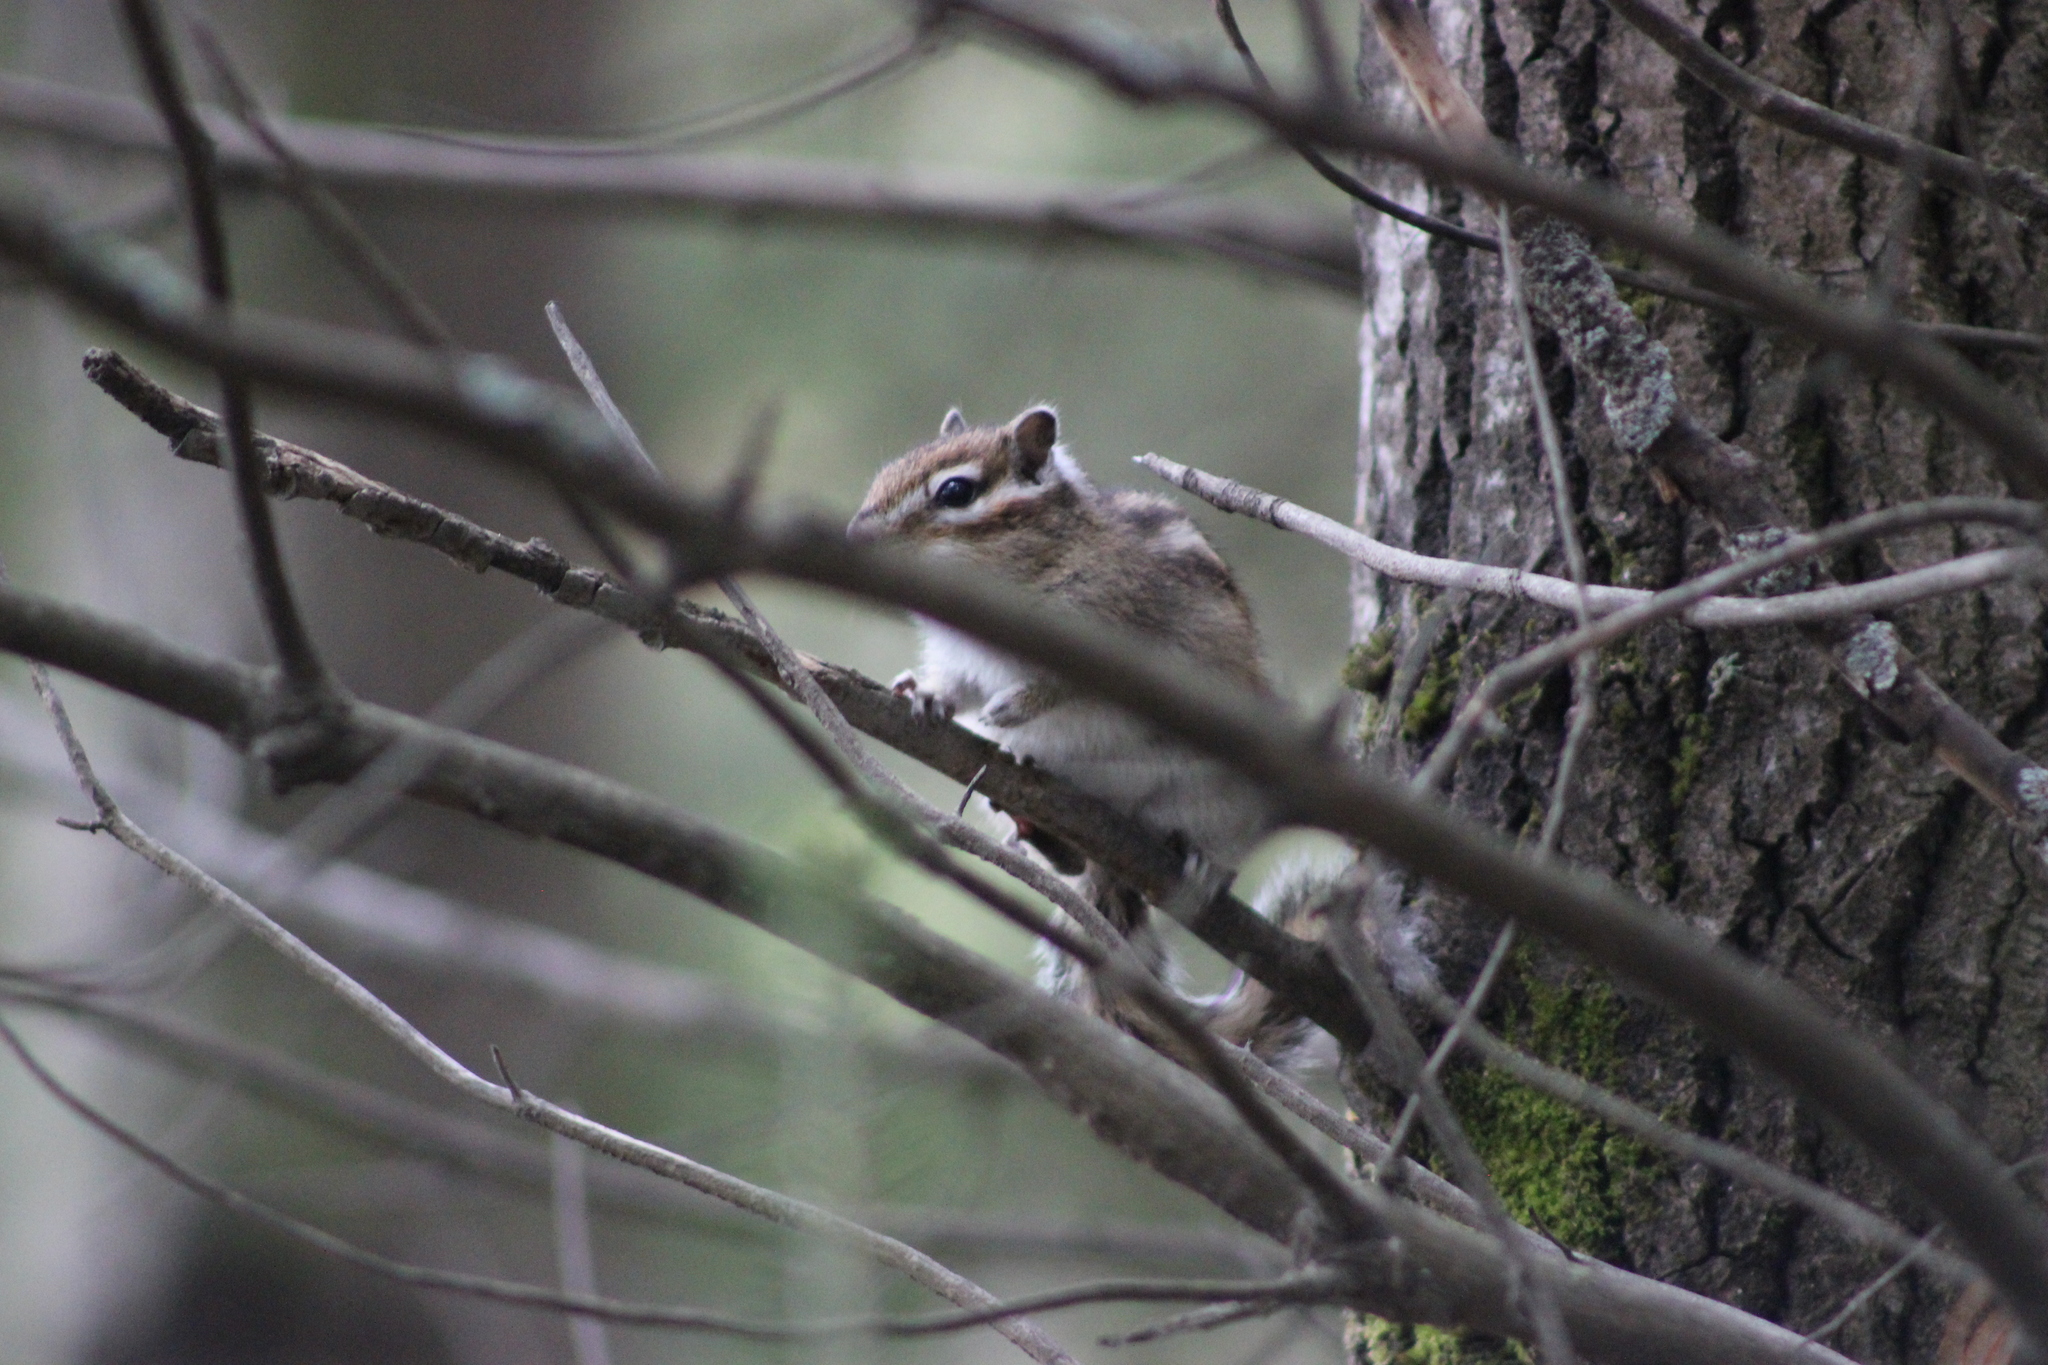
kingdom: Animalia
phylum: Chordata
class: Mammalia
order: Rodentia
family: Sciuridae
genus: Tamias
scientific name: Tamias sibiricus
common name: Siberian chipmunk
